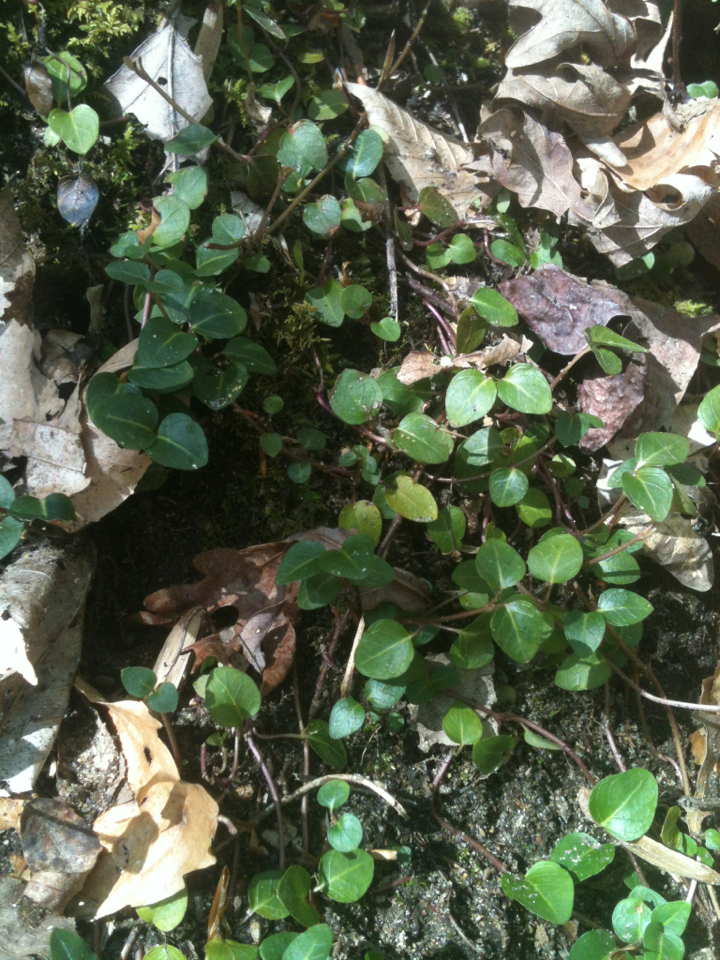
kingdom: Plantae
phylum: Tracheophyta
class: Magnoliopsida
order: Gentianales
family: Rubiaceae
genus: Mitchella
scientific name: Mitchella repens
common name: Partridge-berry
